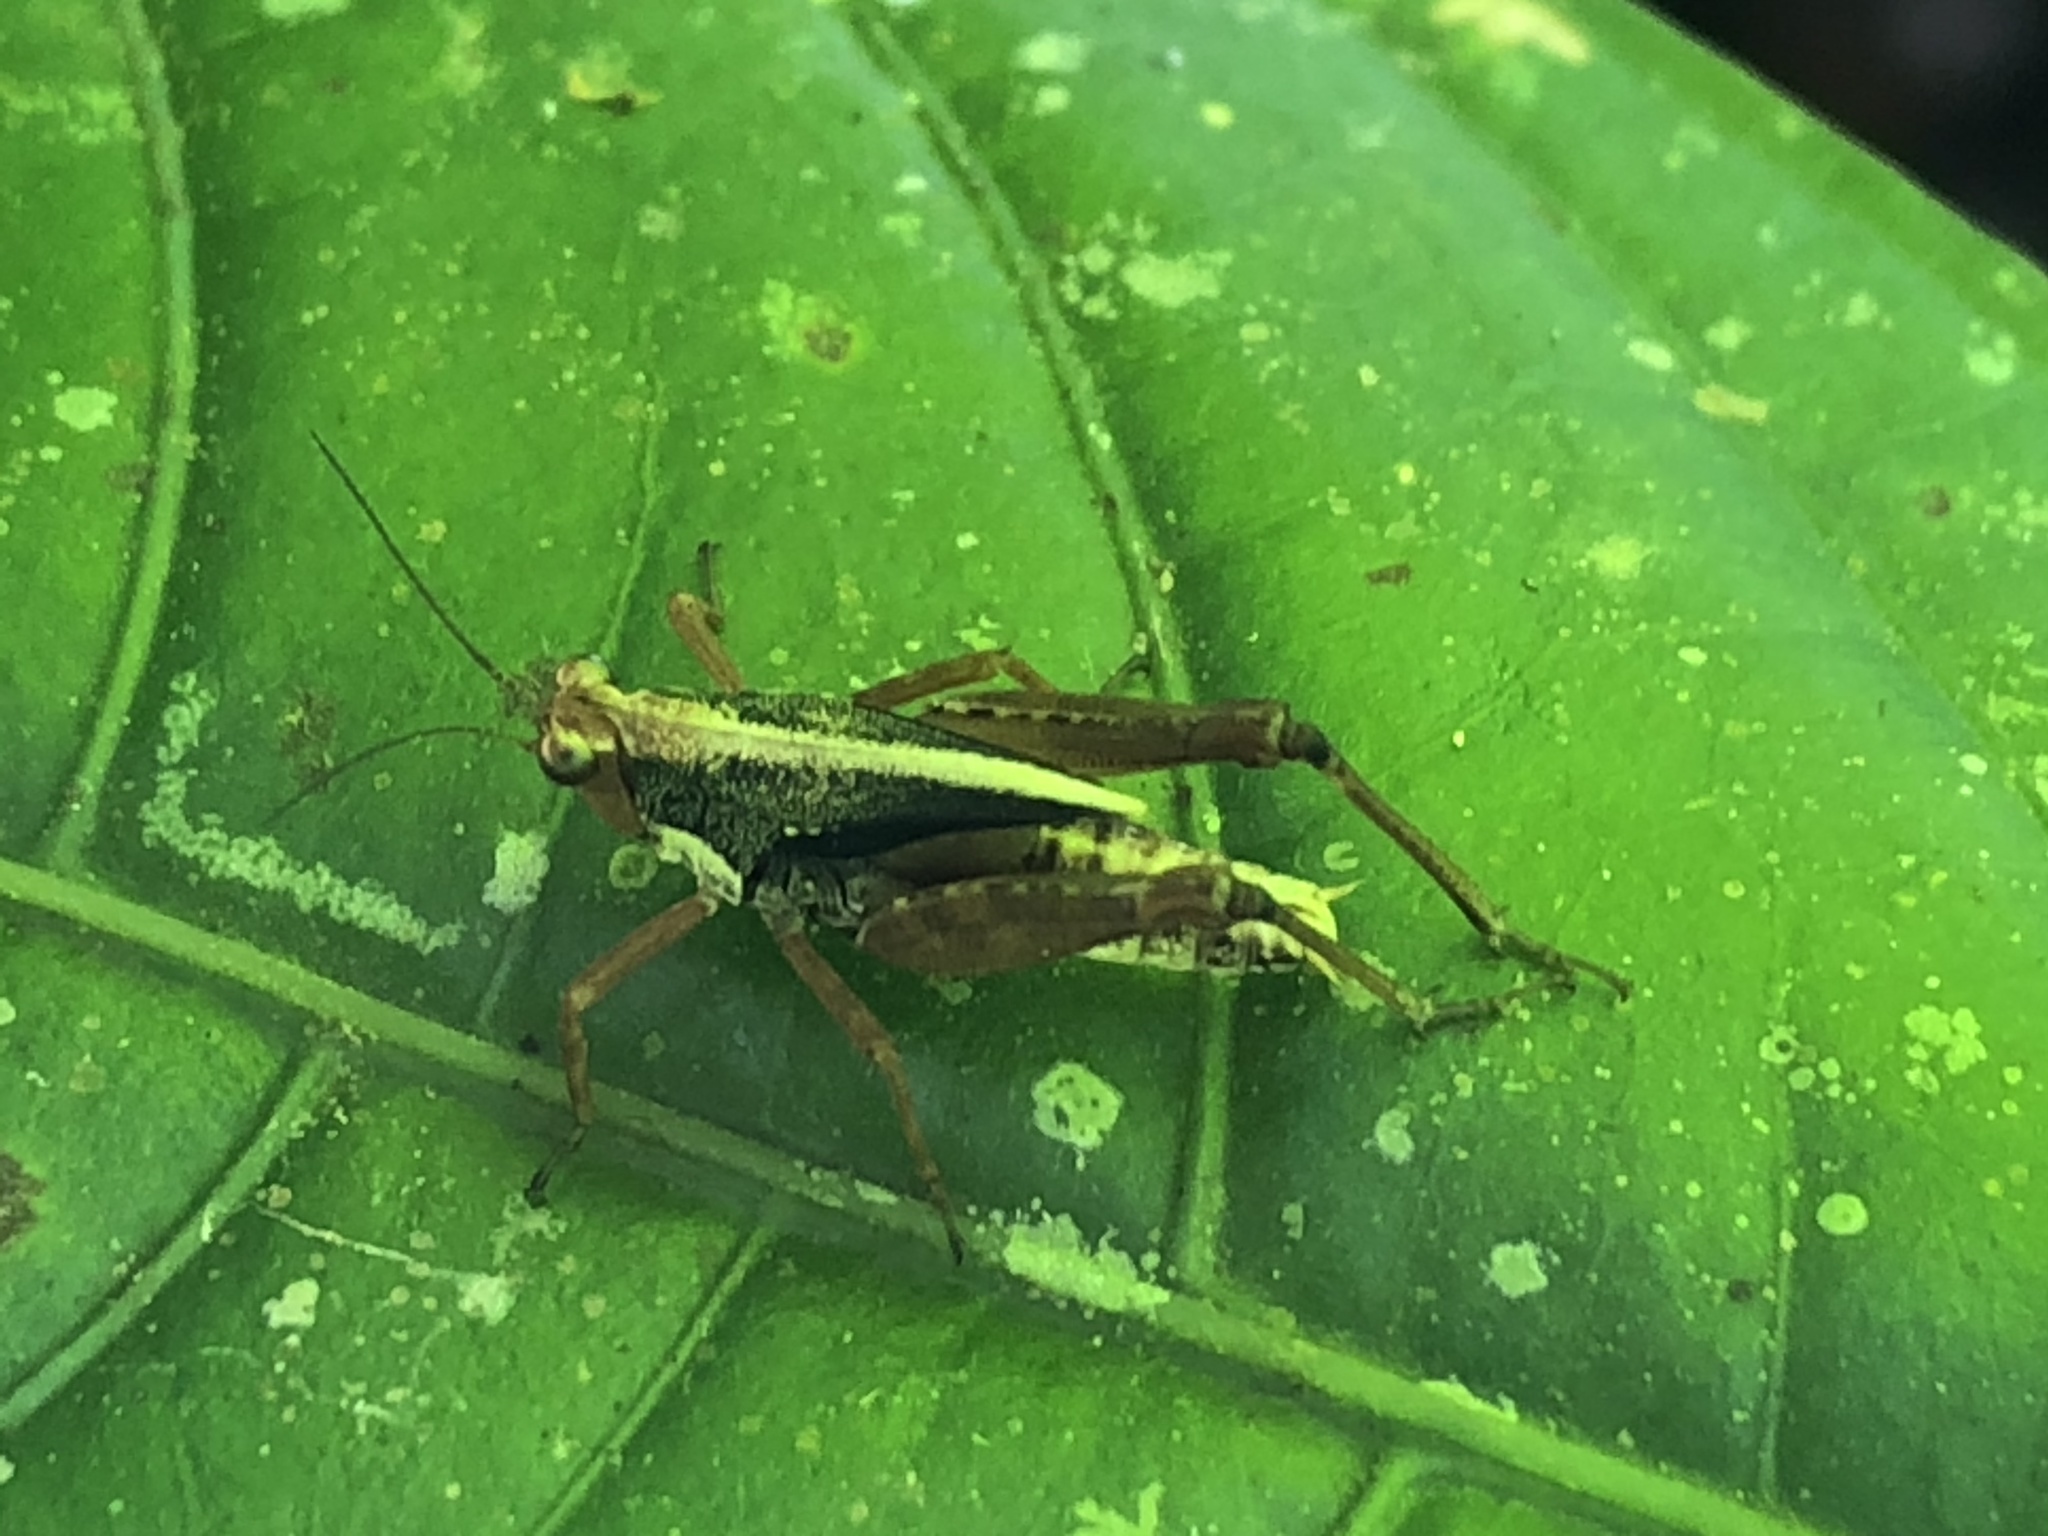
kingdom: Animalia
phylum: Arthropoda
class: Insecta
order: Orthoptera
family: Tetrigidae
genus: Scaria
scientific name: Scaria lineata
